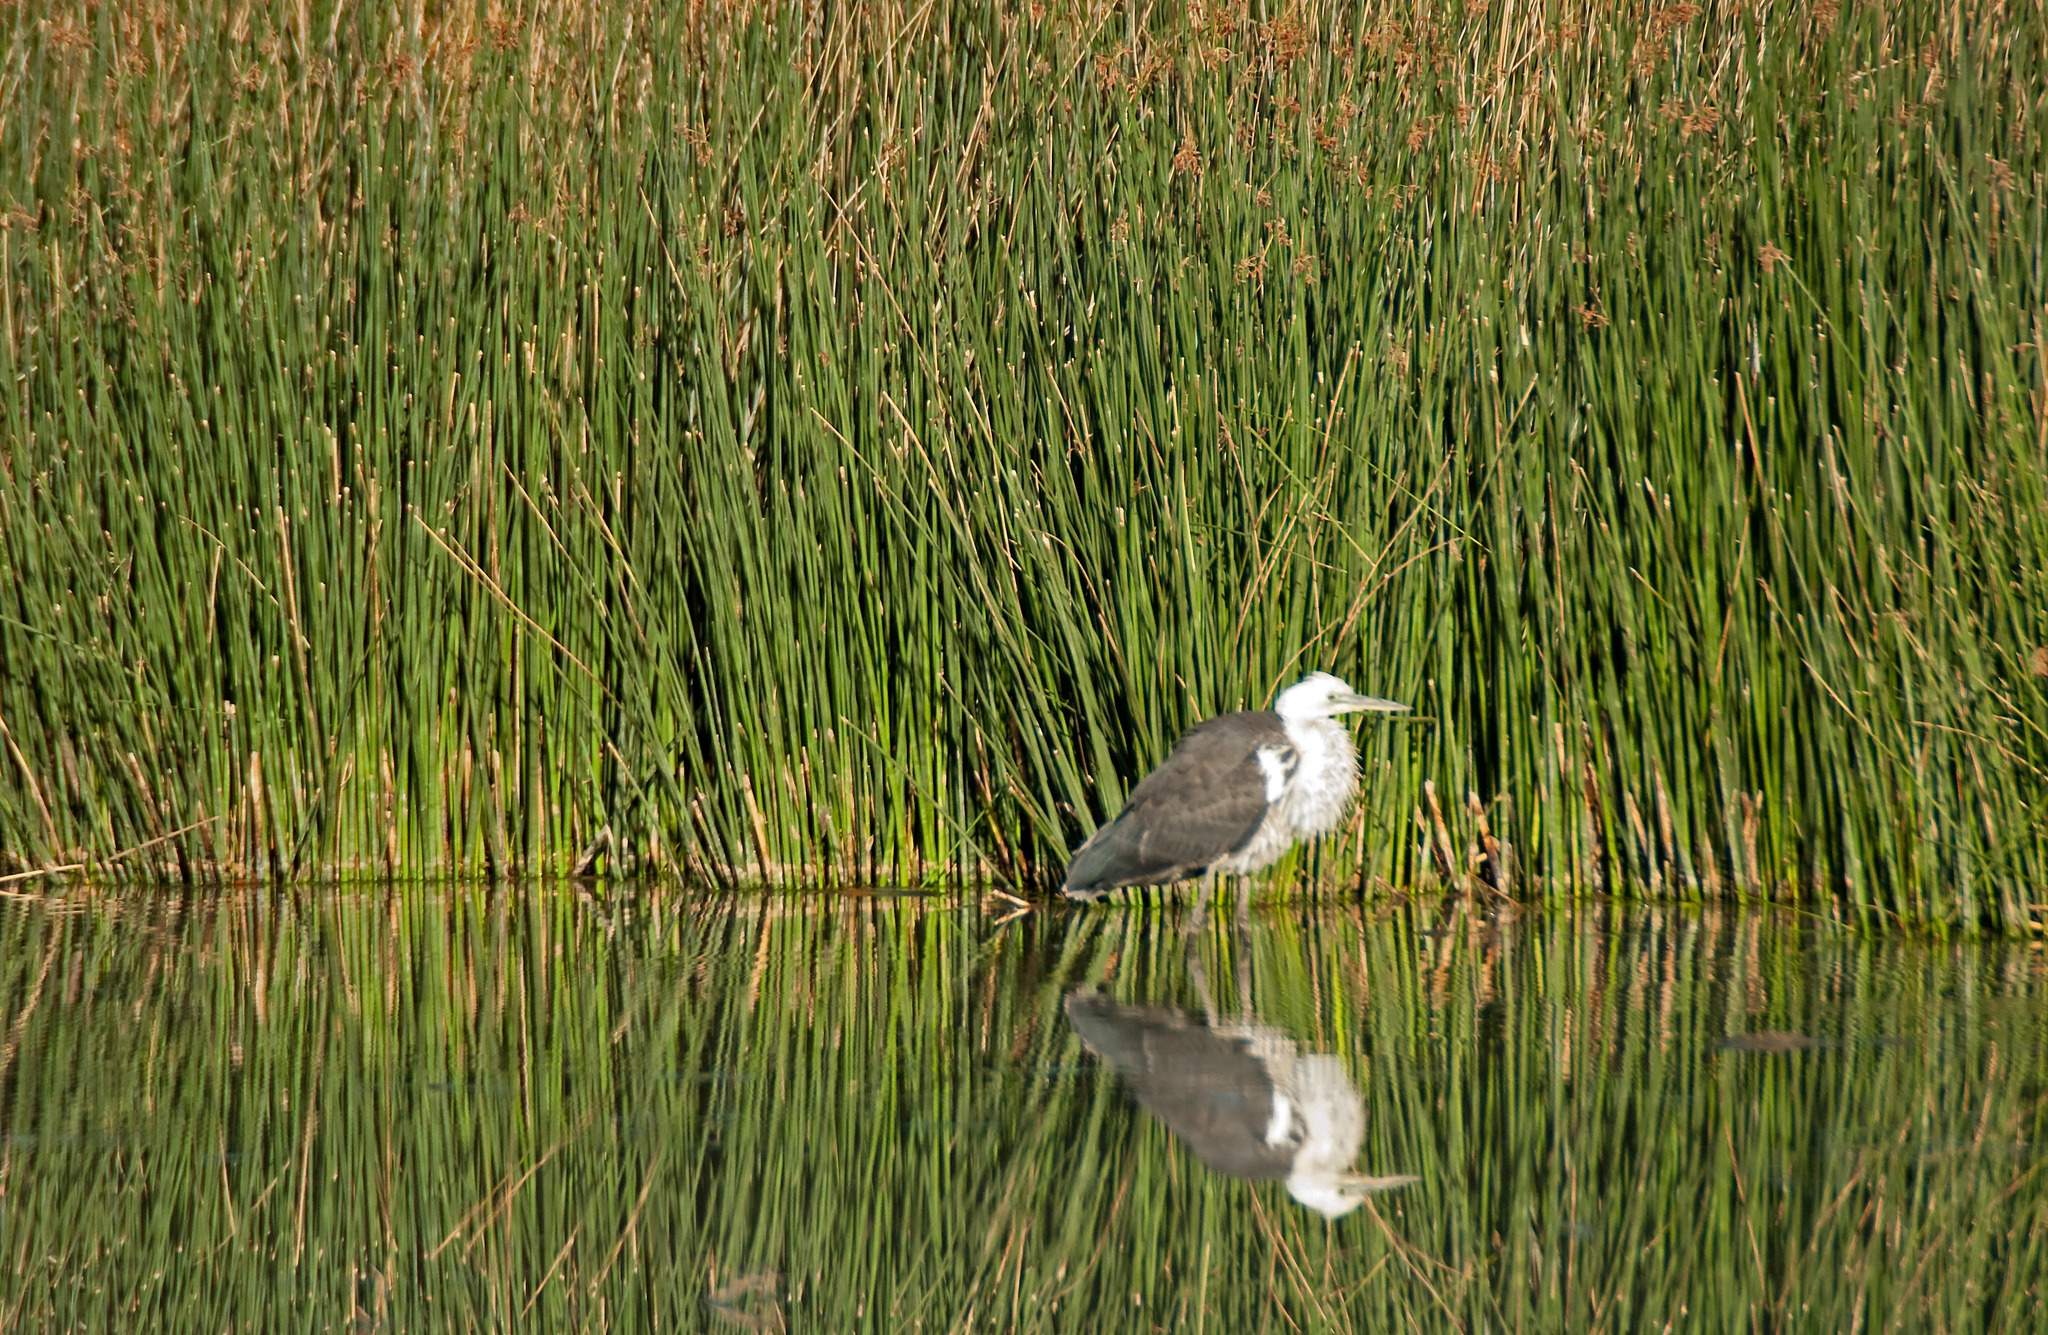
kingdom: Animalia
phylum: Chordata
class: Aves
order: Pelecaniformes
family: Ardeidae
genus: Ardea
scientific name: Ardea pacifica
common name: White-necked heron
